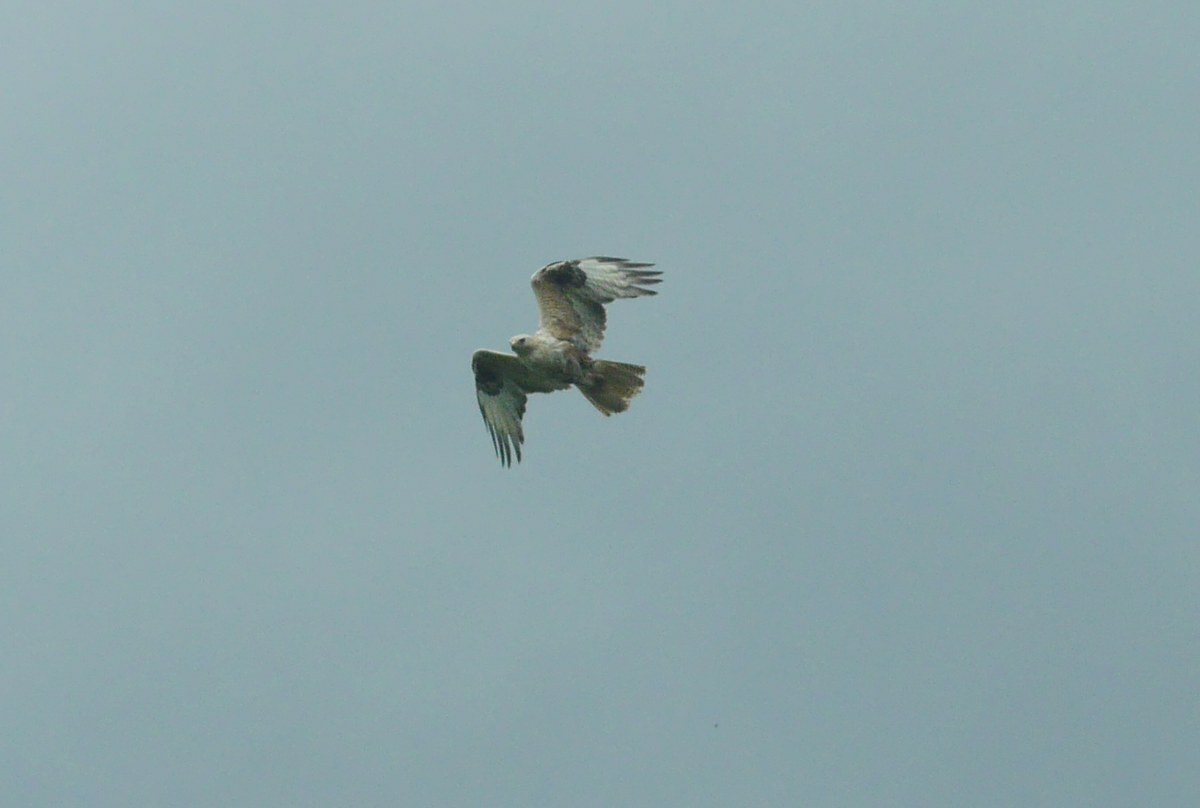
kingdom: Animalia
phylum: Chordata
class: Aves
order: Accipitriformes
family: Accipitridae
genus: Buteo
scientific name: Buteo rufinus
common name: Long-legged buzzard
